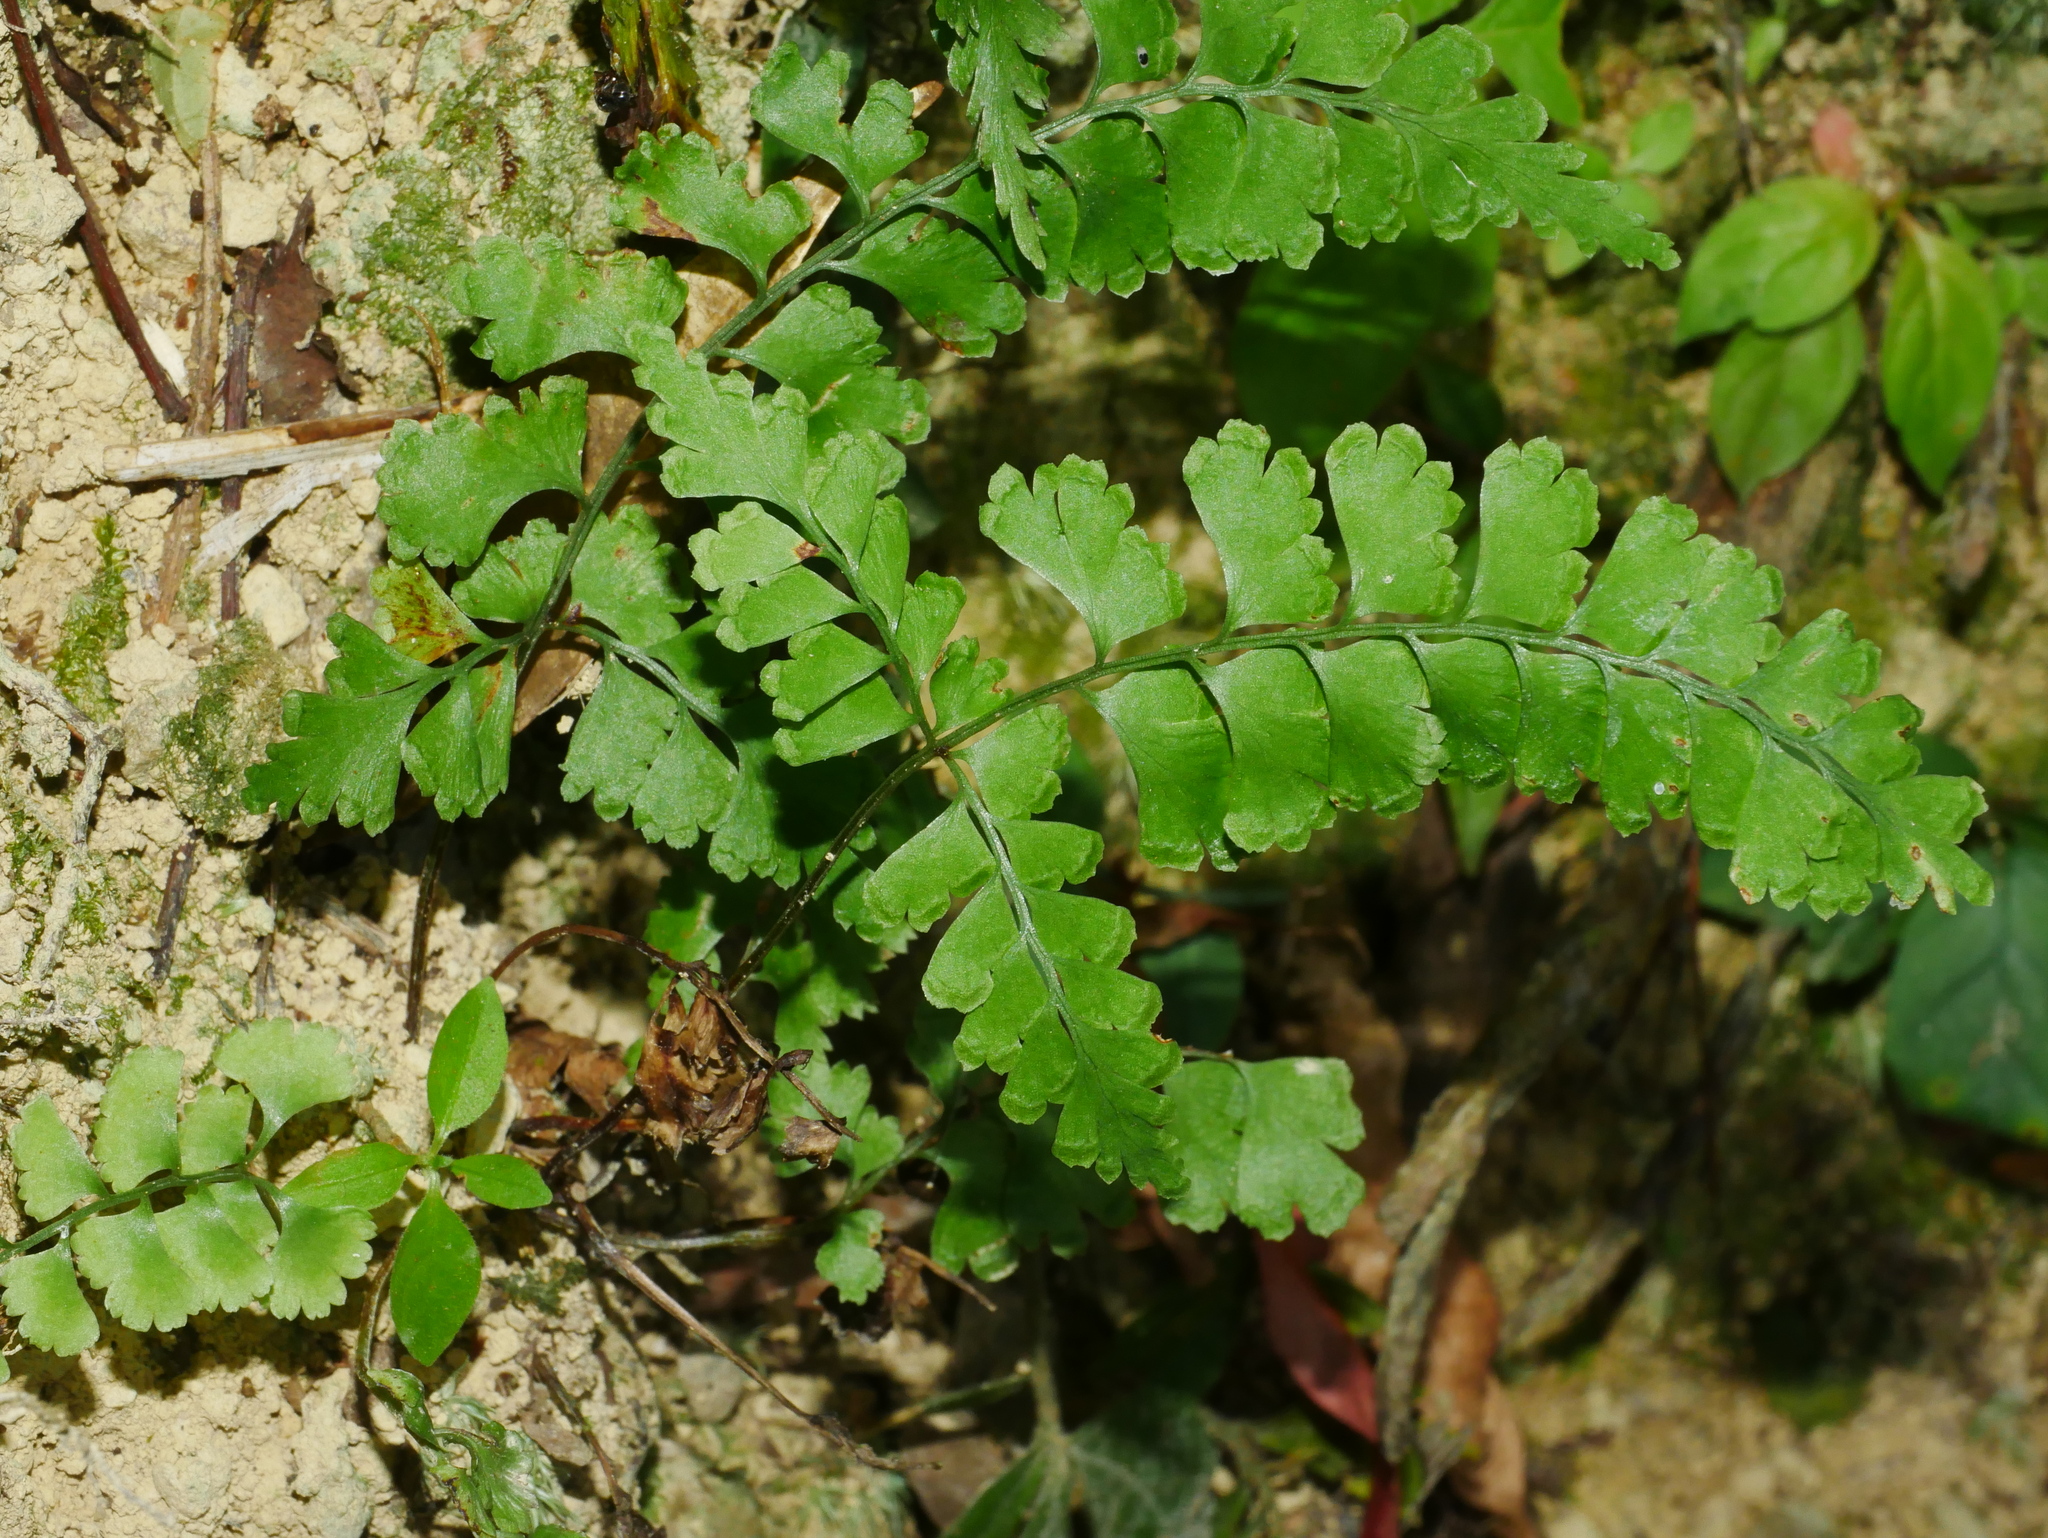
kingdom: Plantae
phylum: Tracheophyta
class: Polypodiopsida
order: Polypodiales
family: Lindsaeaceae
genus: Lindsaea
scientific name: Lindsaea chienii
